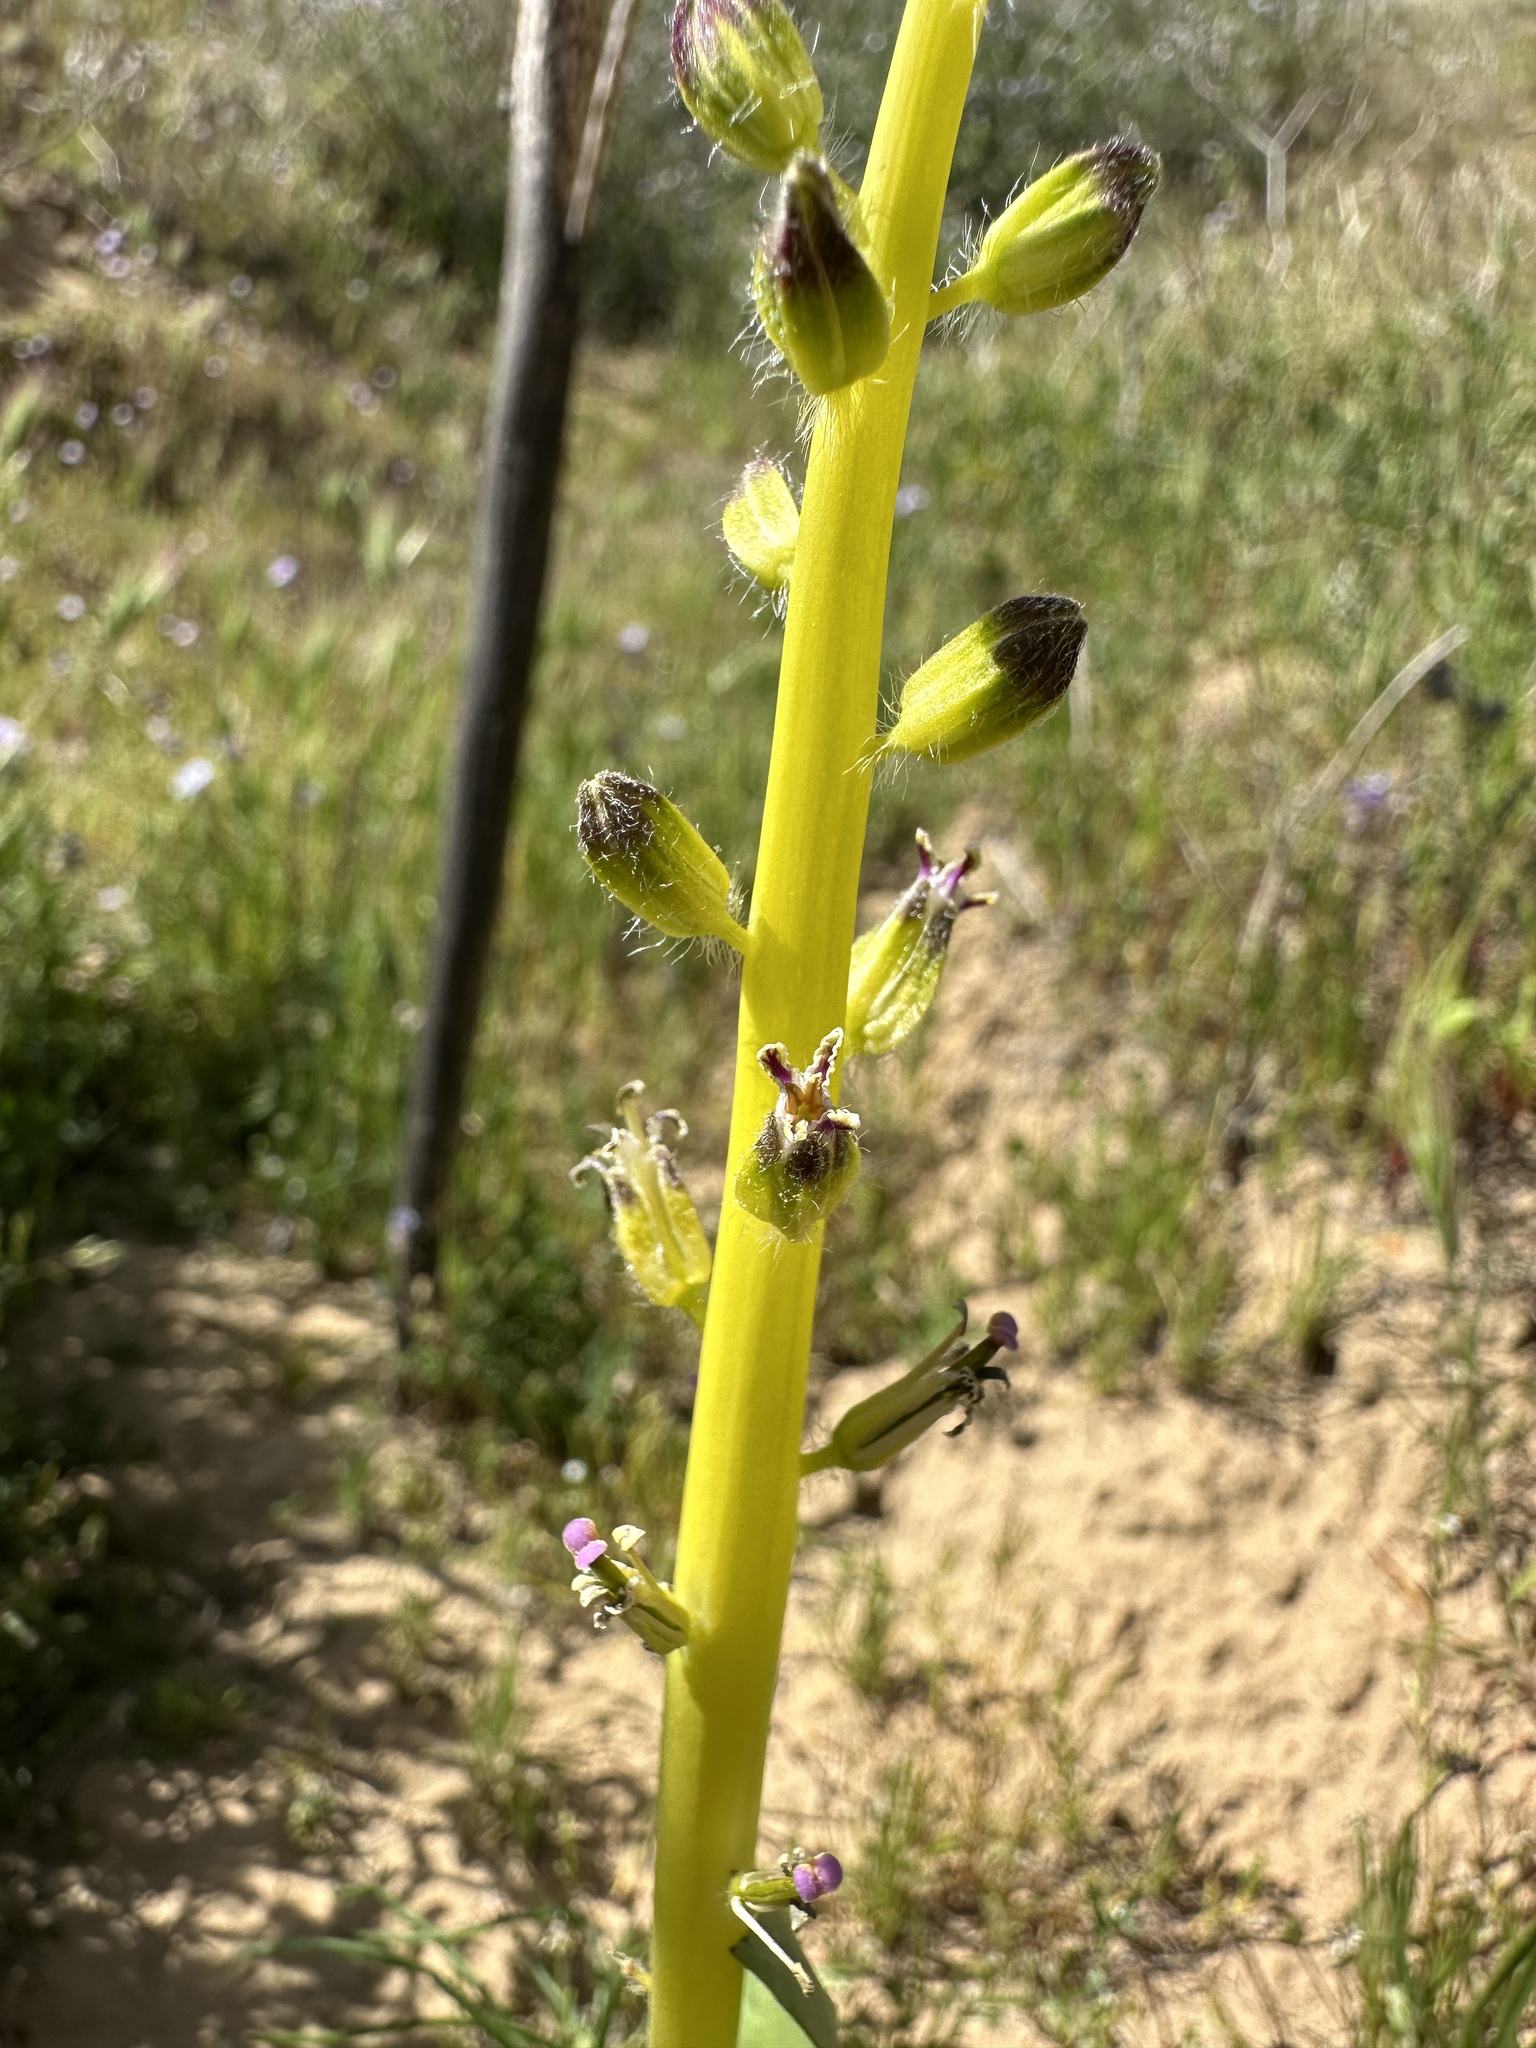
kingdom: Plantae
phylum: Tracheophyta
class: Magnoliopsida
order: Brassicales
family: Brassicaceae
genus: Streptanthus
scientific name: Streptanthus inflatus
